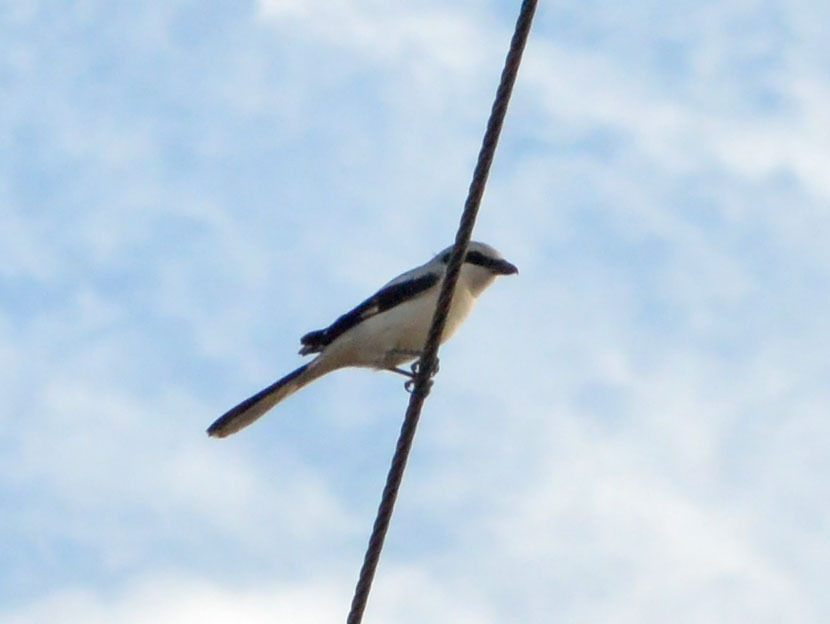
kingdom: Animalia
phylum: Chordata
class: Aves
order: Passeriformes
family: Laniidae
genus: Lanius
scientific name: Lanius excubitor
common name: Great grey shrike
